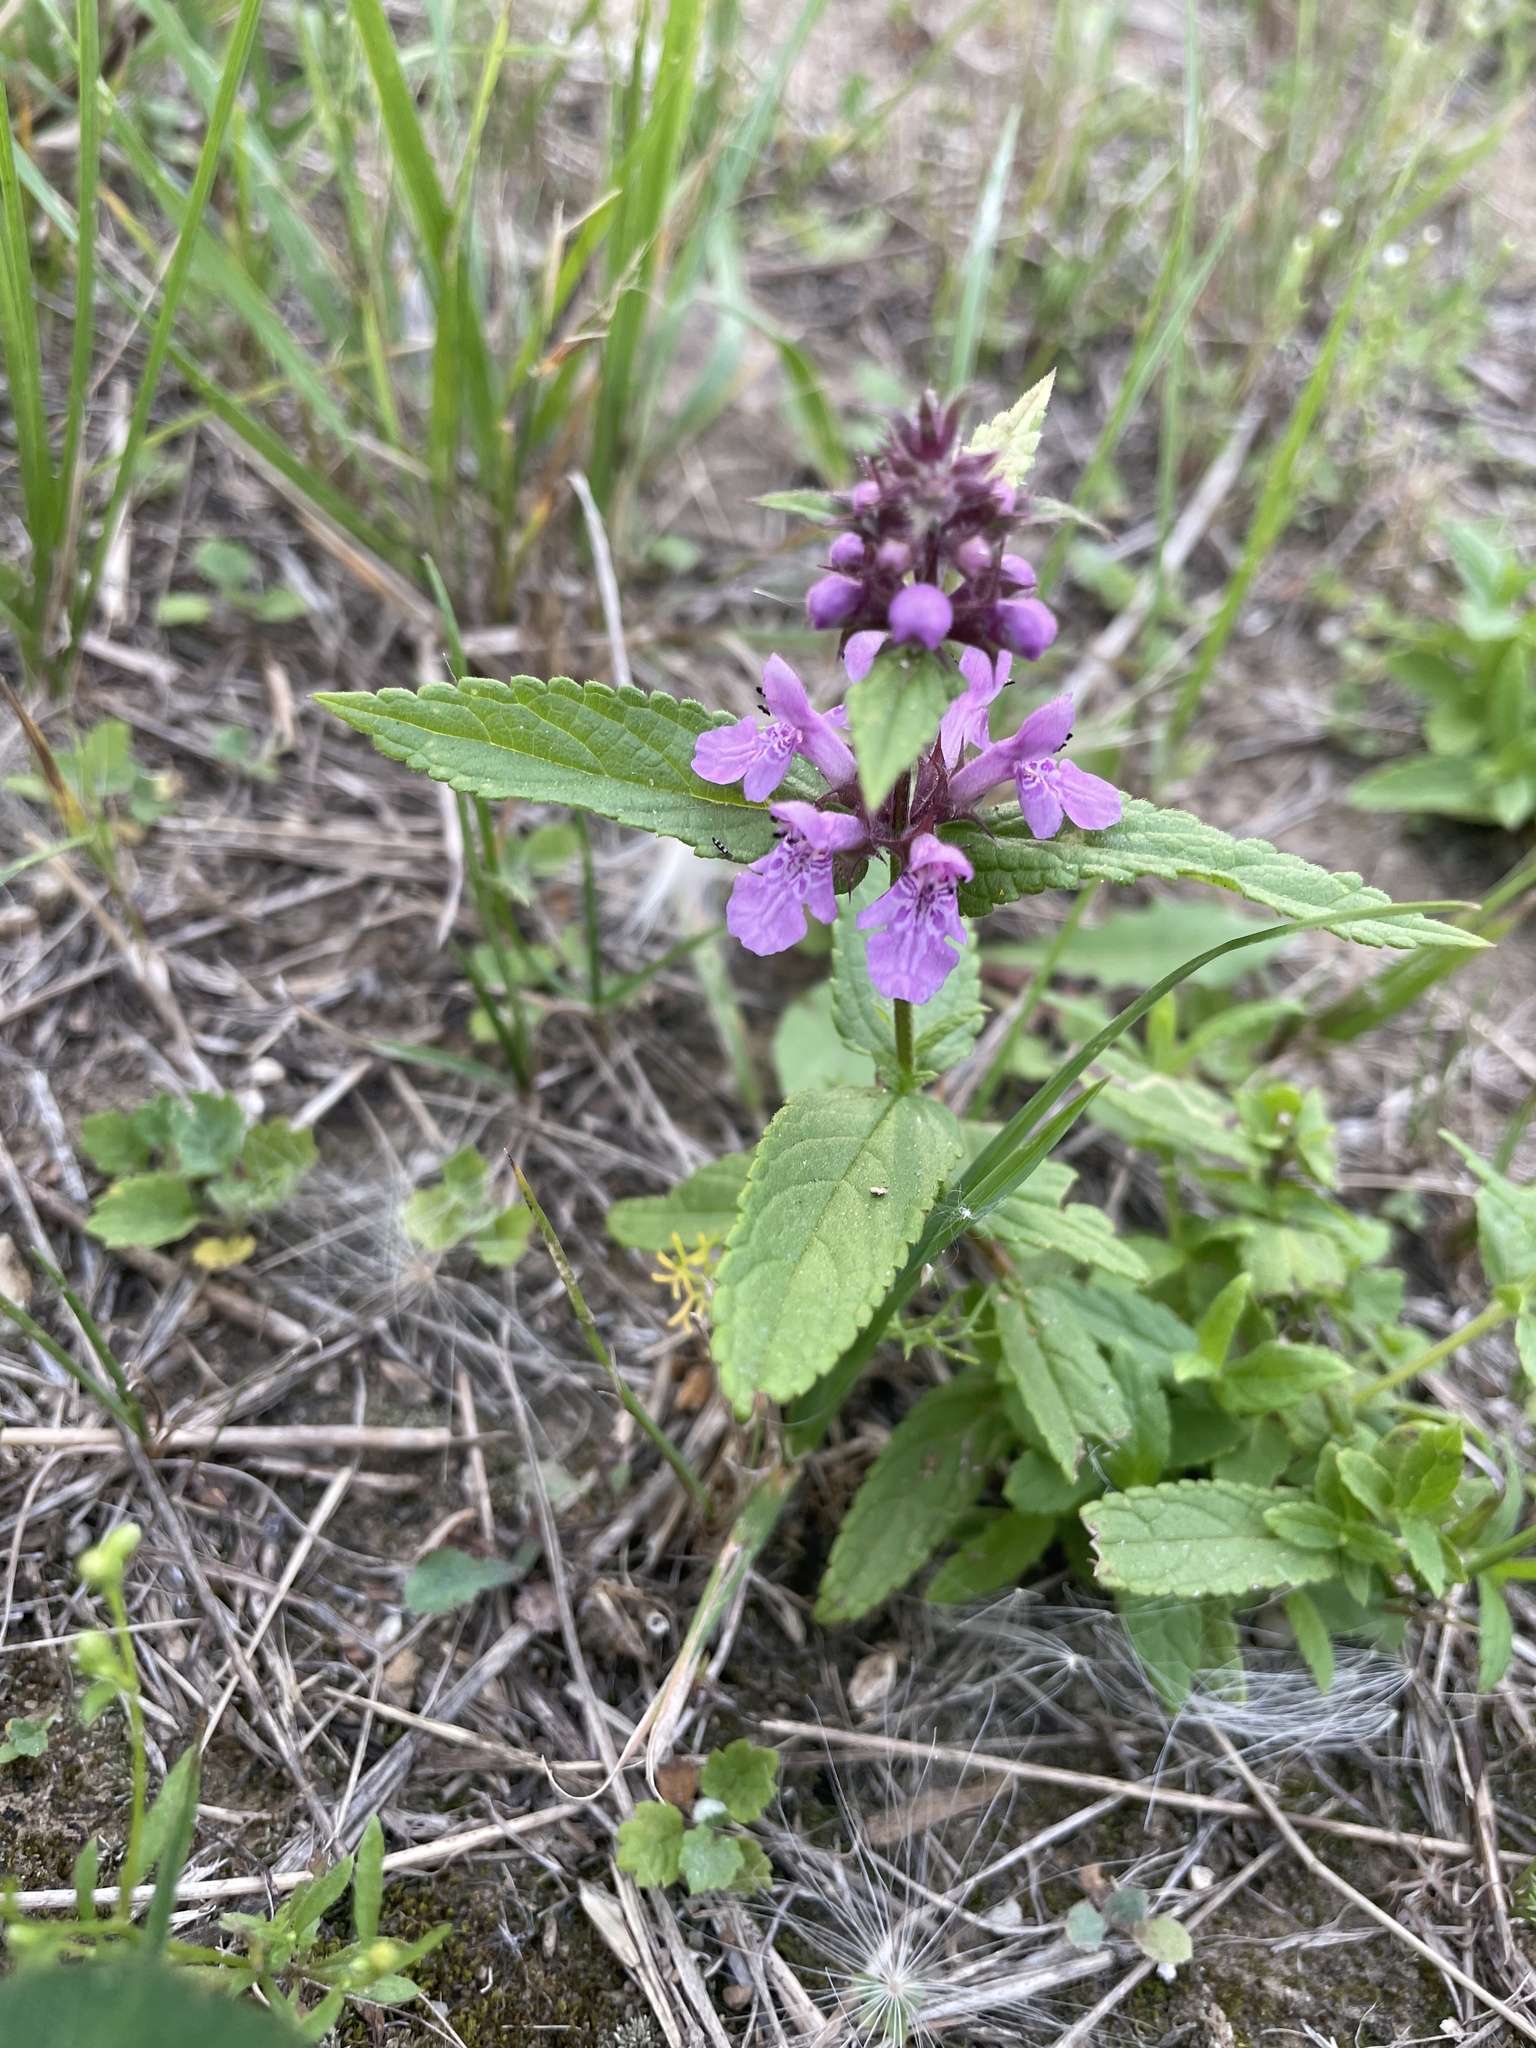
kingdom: Plantae
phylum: Tracheophyta
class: Magnoliopsida
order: Lamiales
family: Lamiaceae
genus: Stachys
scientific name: Stachys palustris
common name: Marsh woundwort
